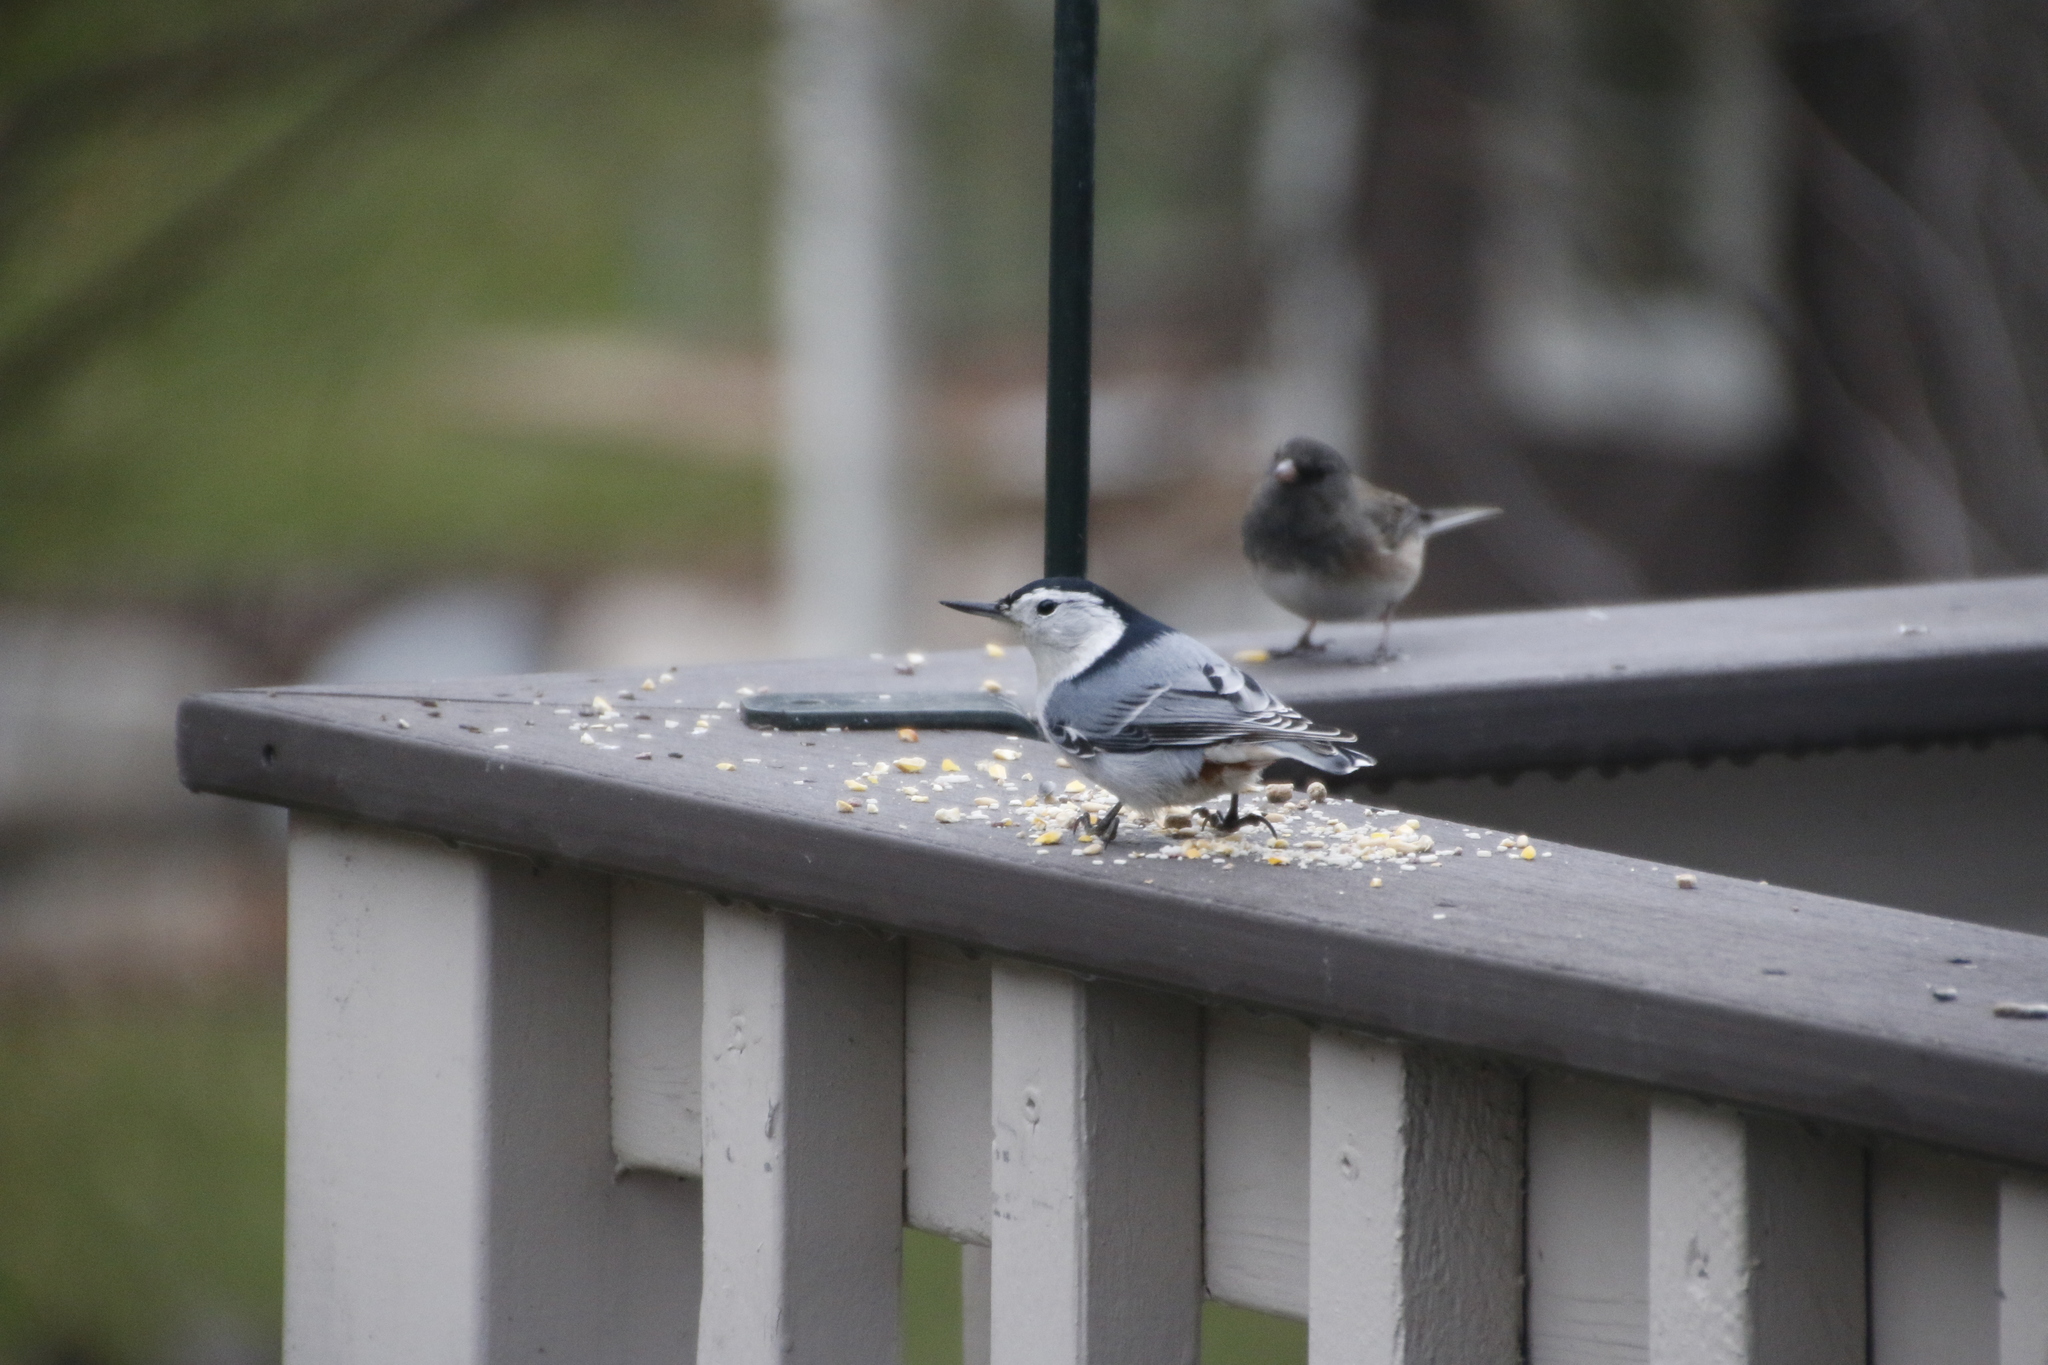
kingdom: Animalia
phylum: Chordata
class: Aves
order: Passeriformes
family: Sittidae
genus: Sitta
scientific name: Sitta carolinensis
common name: White-breasted nuthatch
